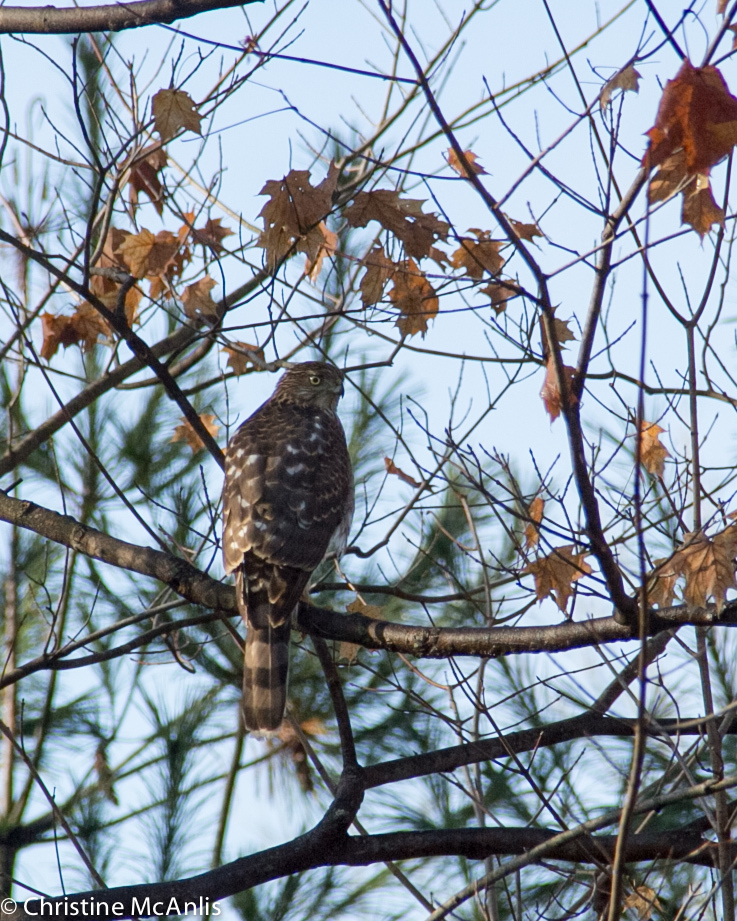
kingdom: Animalia
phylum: Chordata
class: Aves
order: Accipitriformes
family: Accipitridae
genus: Accipiter
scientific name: Accipiter cooperii
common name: Cooper's hawk
